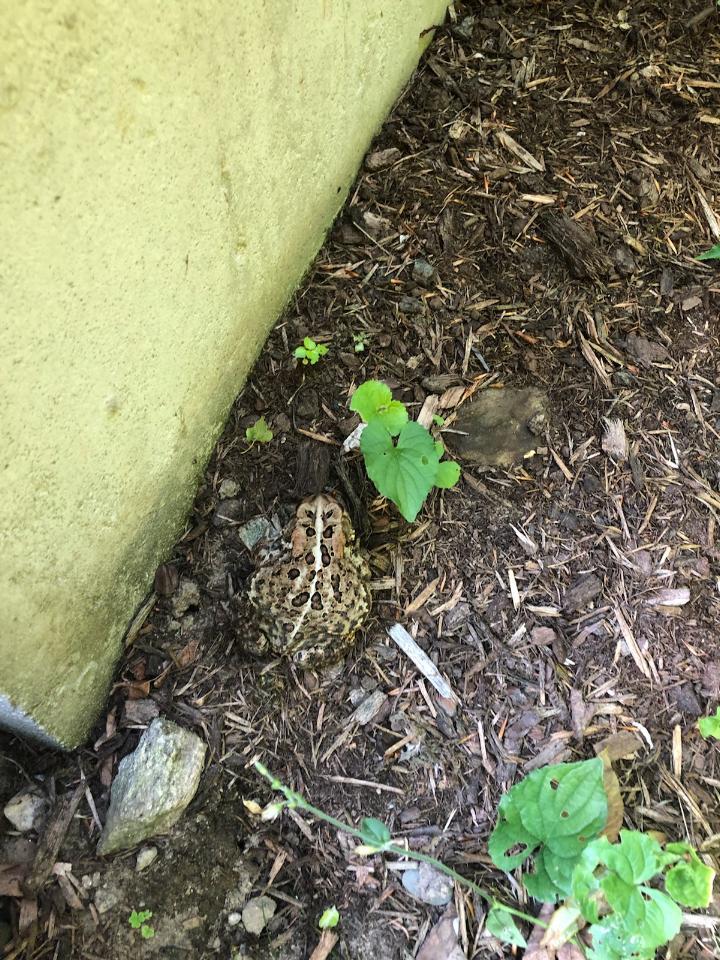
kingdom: Animalia
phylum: Chordata
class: Amphibia
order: Anura
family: Bufonidae
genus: Anaxyrus
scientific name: Anaxyrus americanus
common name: American toad
